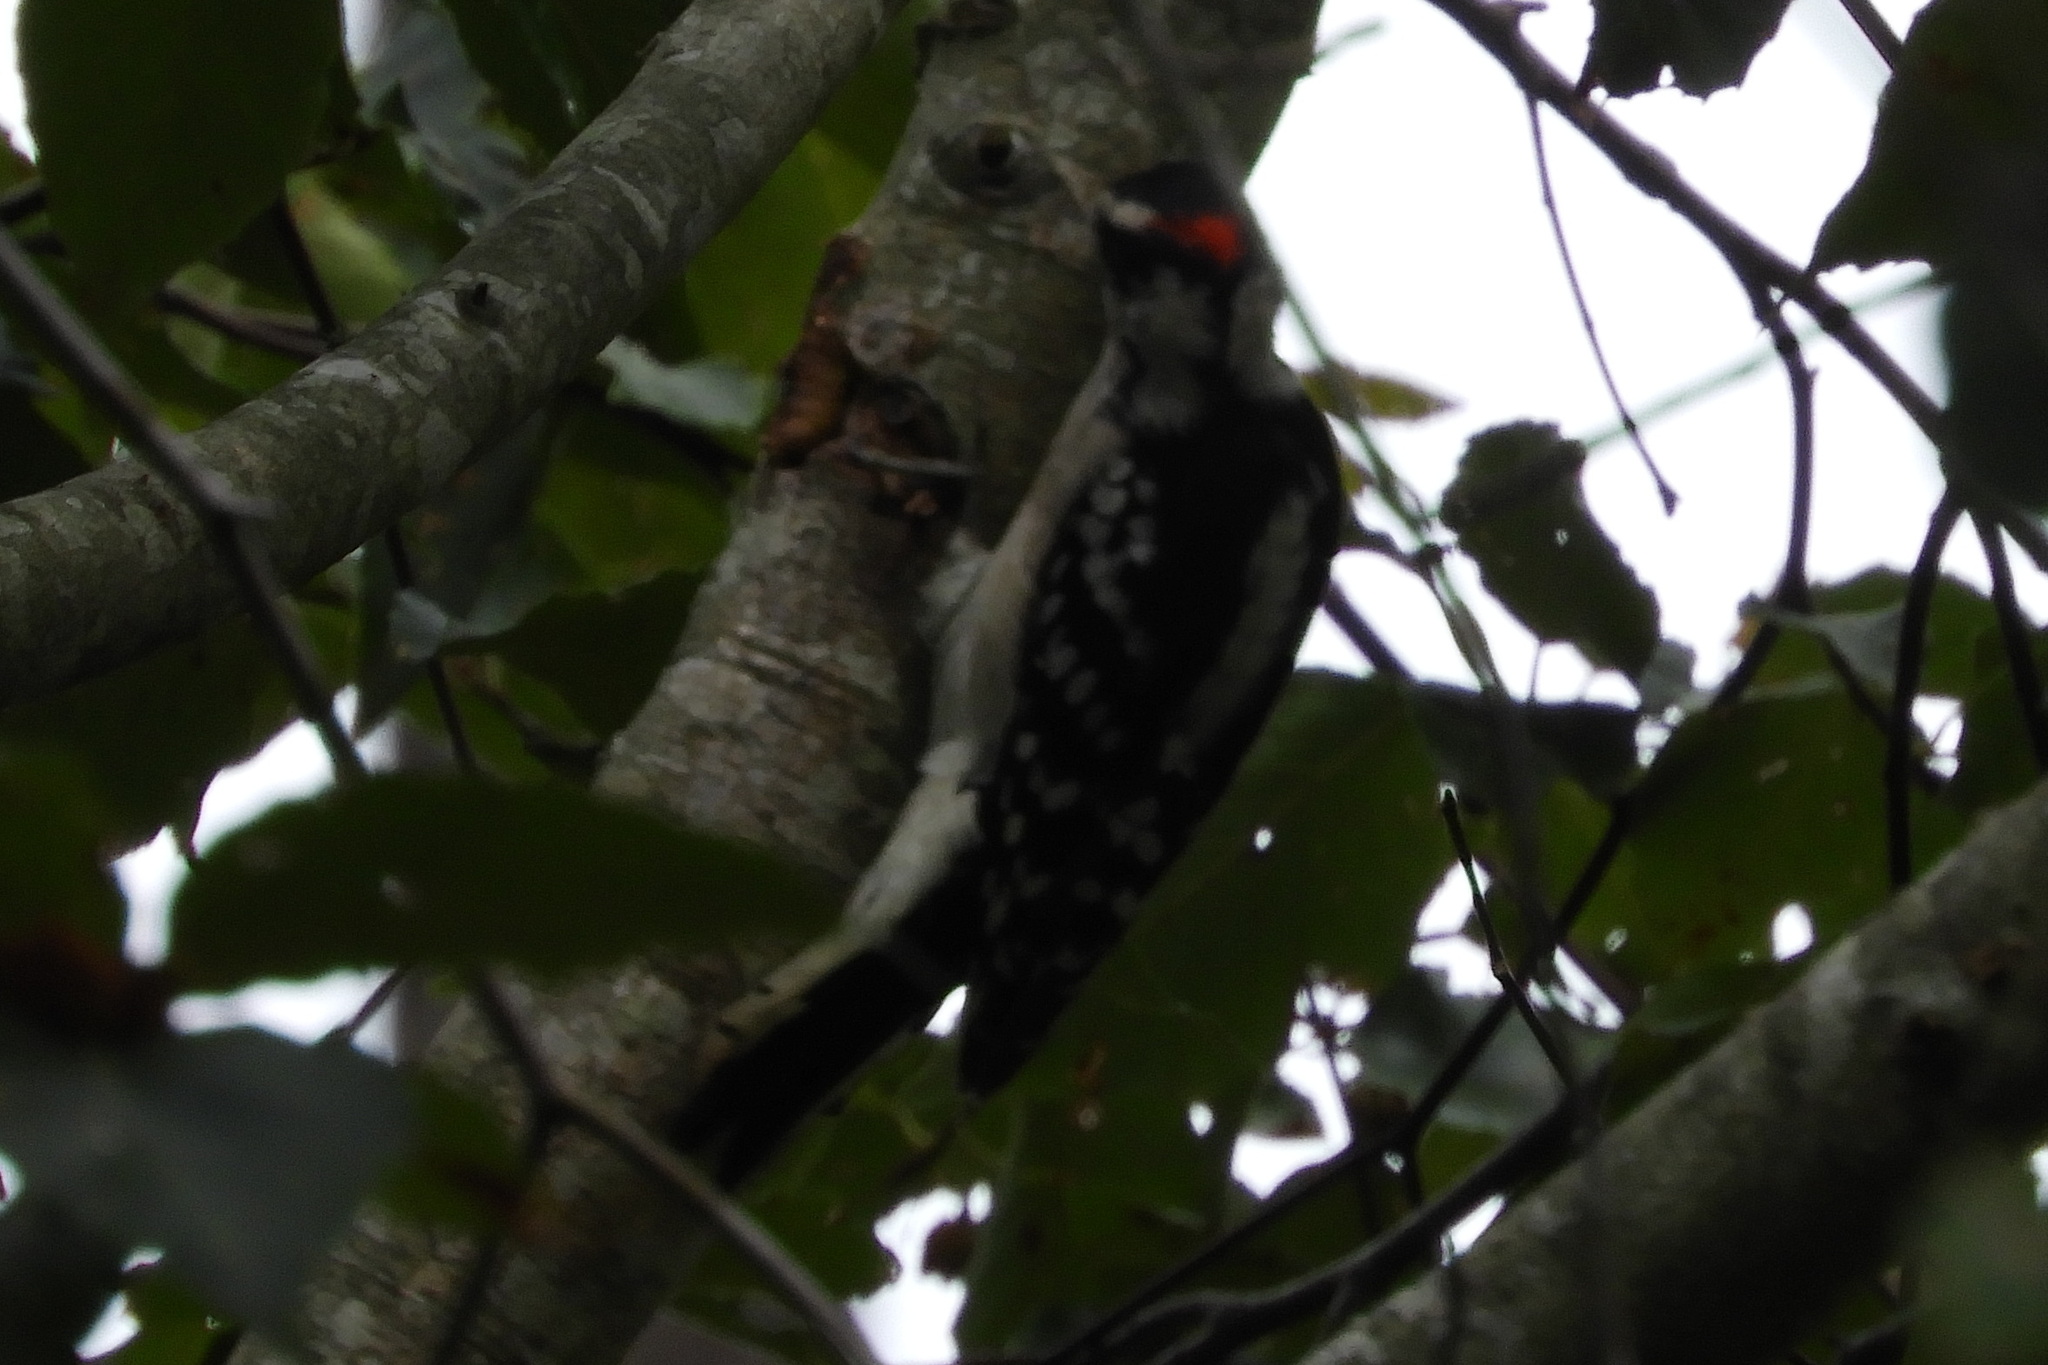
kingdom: Animalia
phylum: Chordata
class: Aves
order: Piciformes
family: Picidae
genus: Dryobates
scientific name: Dryobates pubescens
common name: Downy woodpecker
